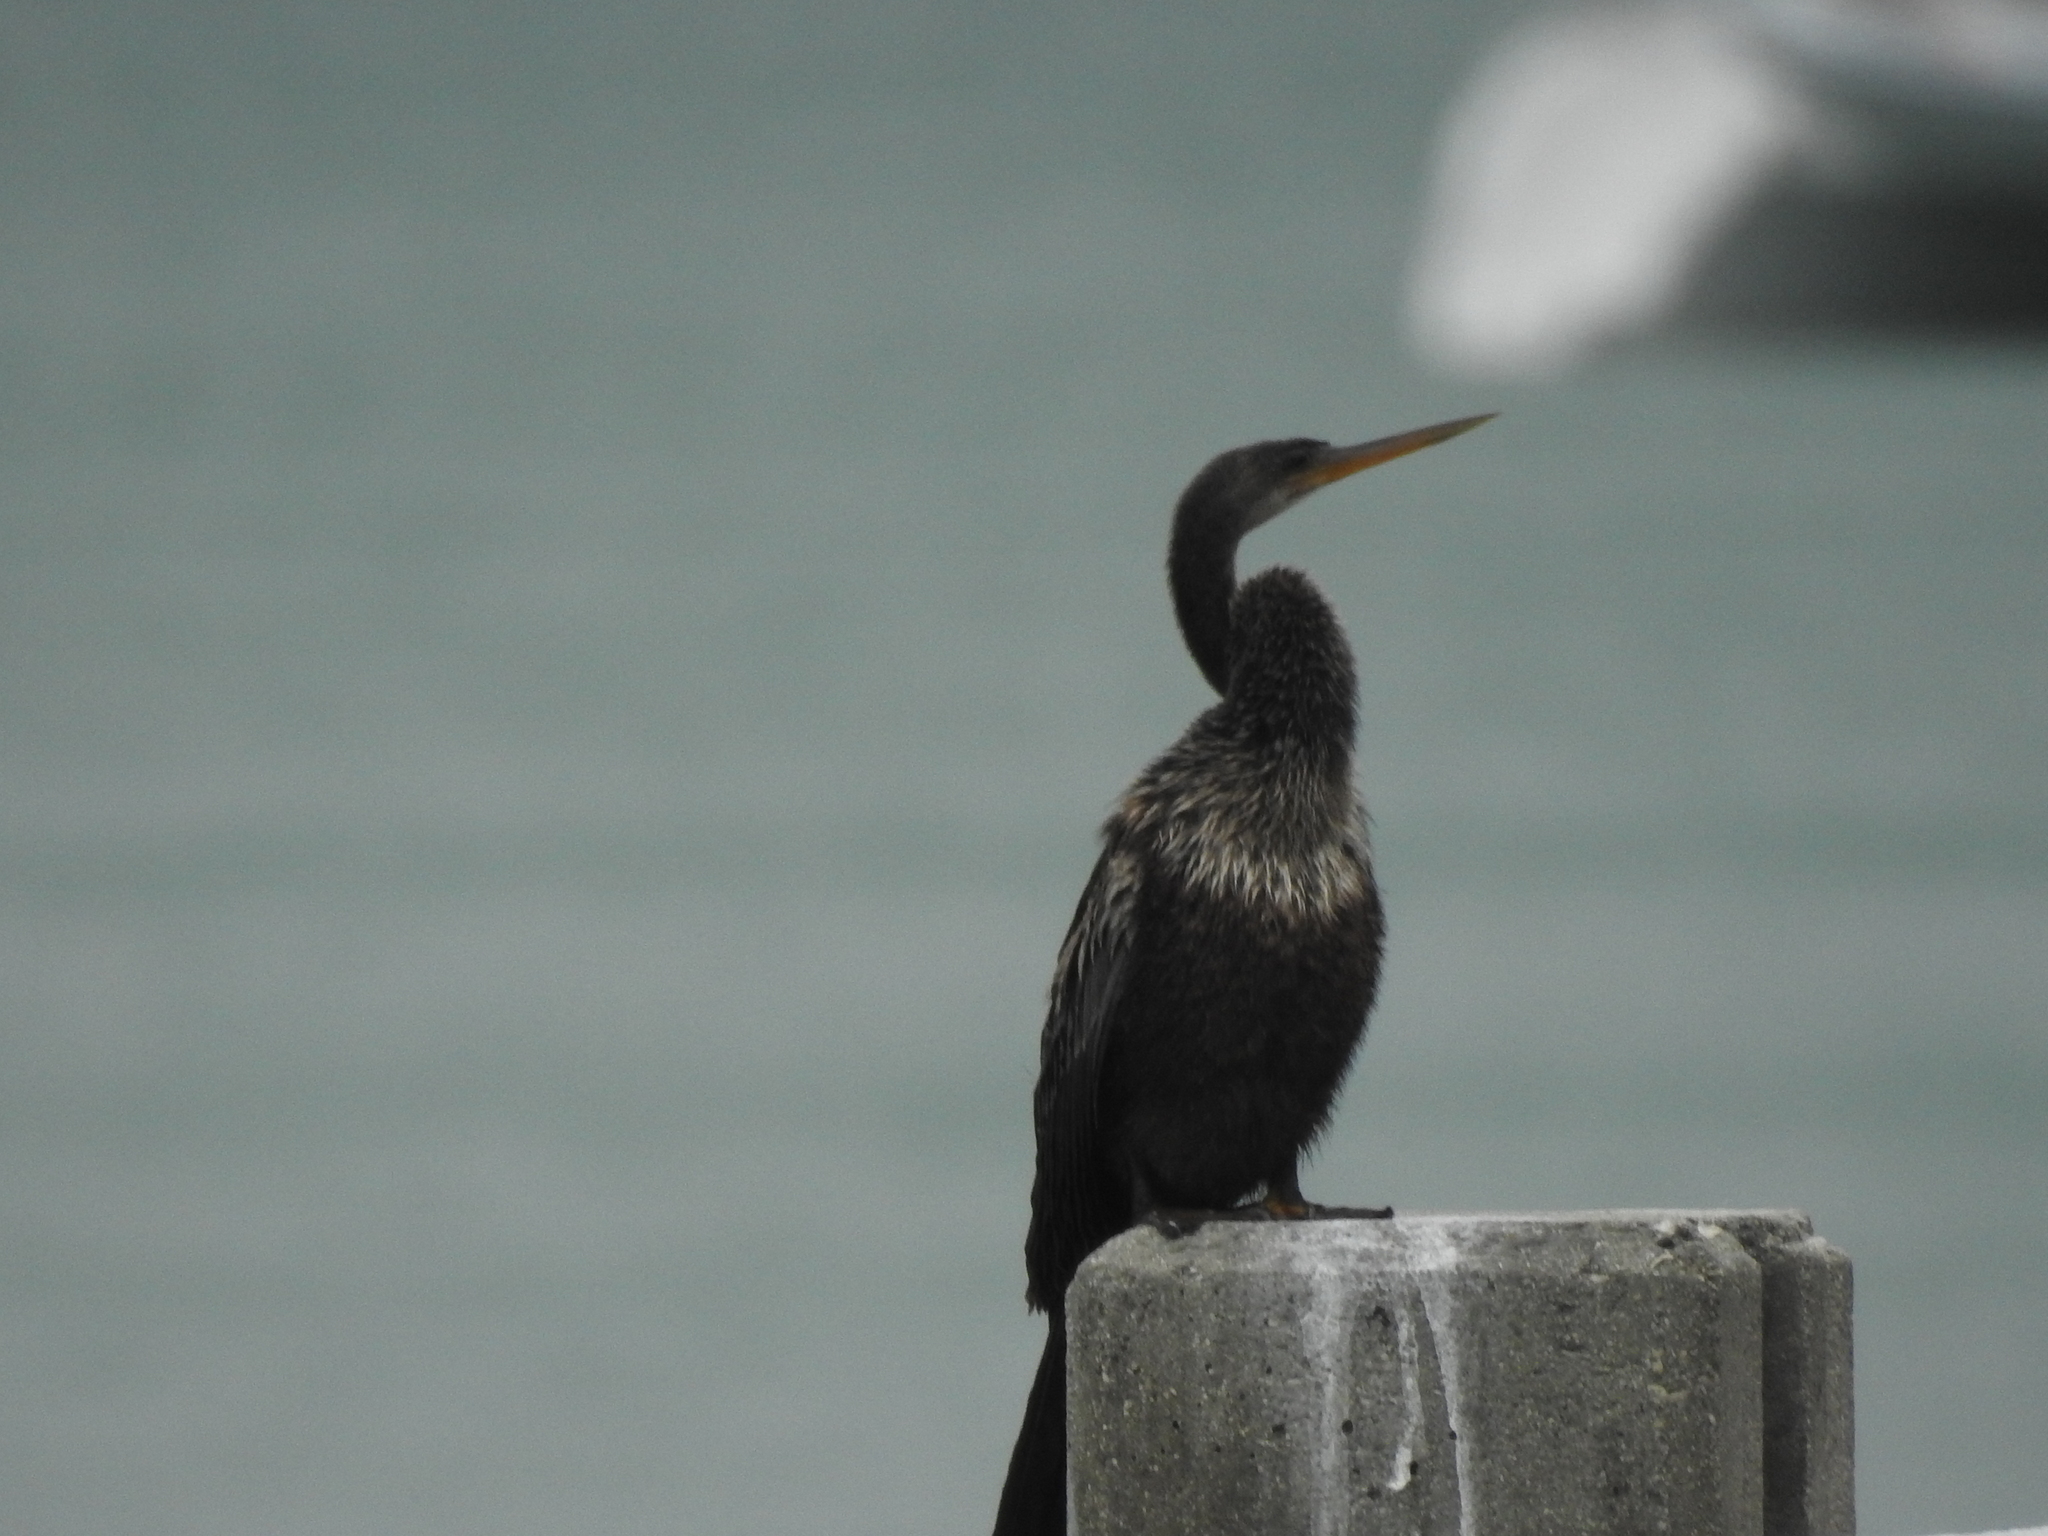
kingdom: Animalia
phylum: Chordata
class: Aves
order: Suliformes
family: Anhingidae
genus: Anhinga
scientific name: Anhinga anhinga
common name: Anhinga
